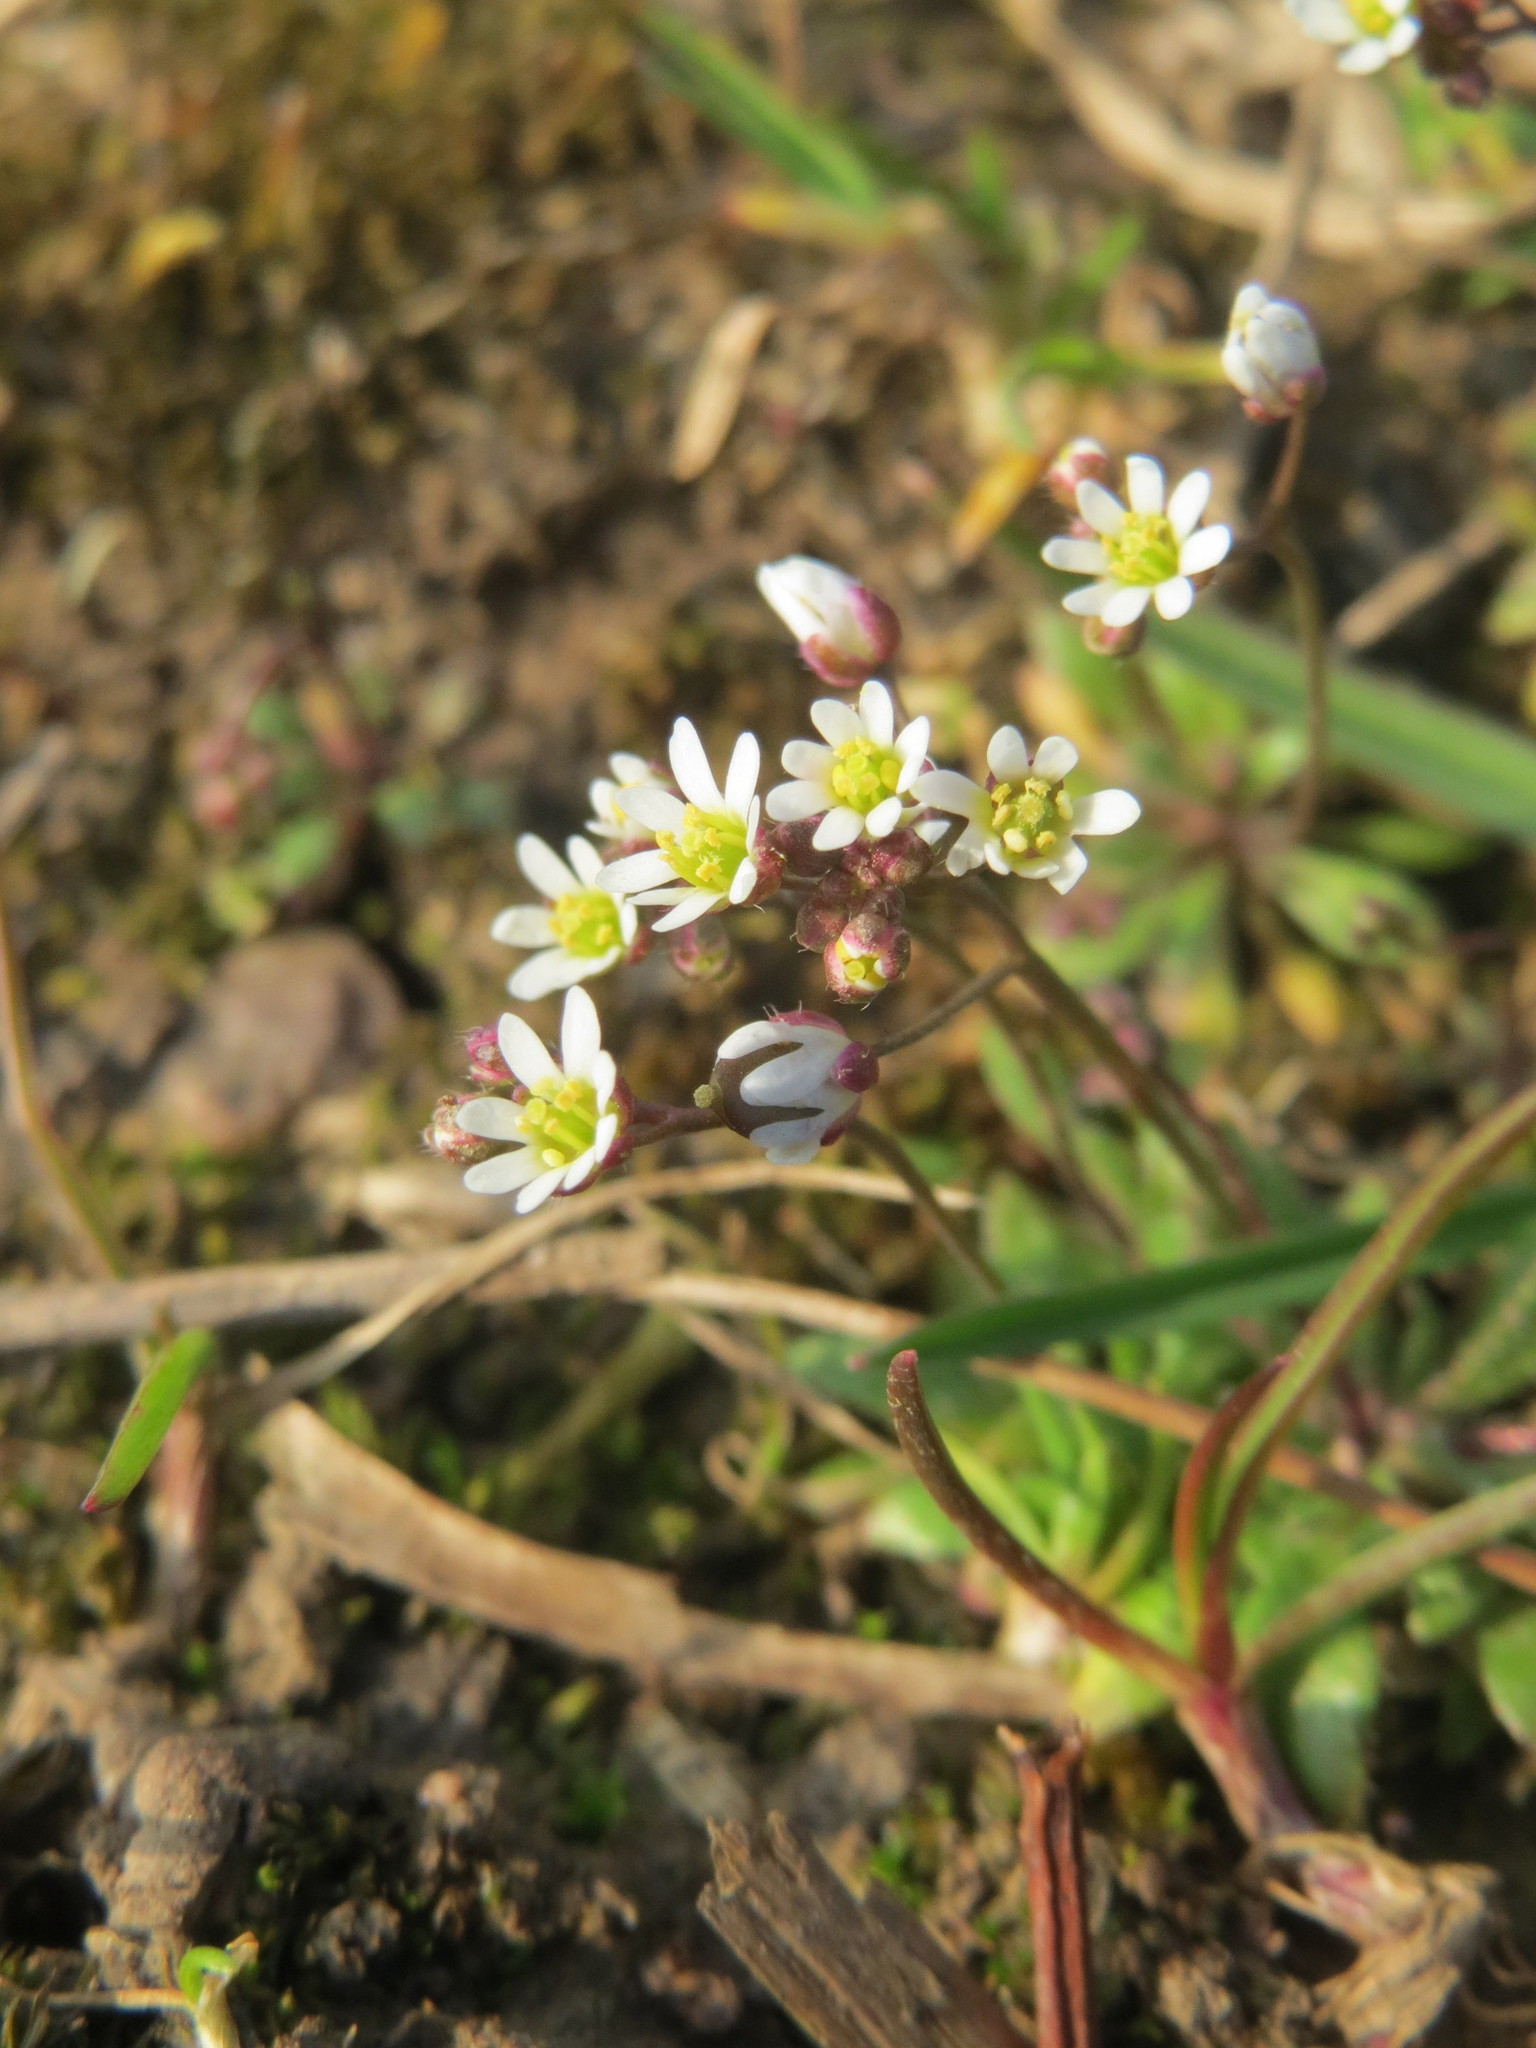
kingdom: Plantae
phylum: Tracheophyta
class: Magnoliopsida
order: Brassicales
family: Brassicaceae
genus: Draba
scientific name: Draba verna
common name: Spring draba
